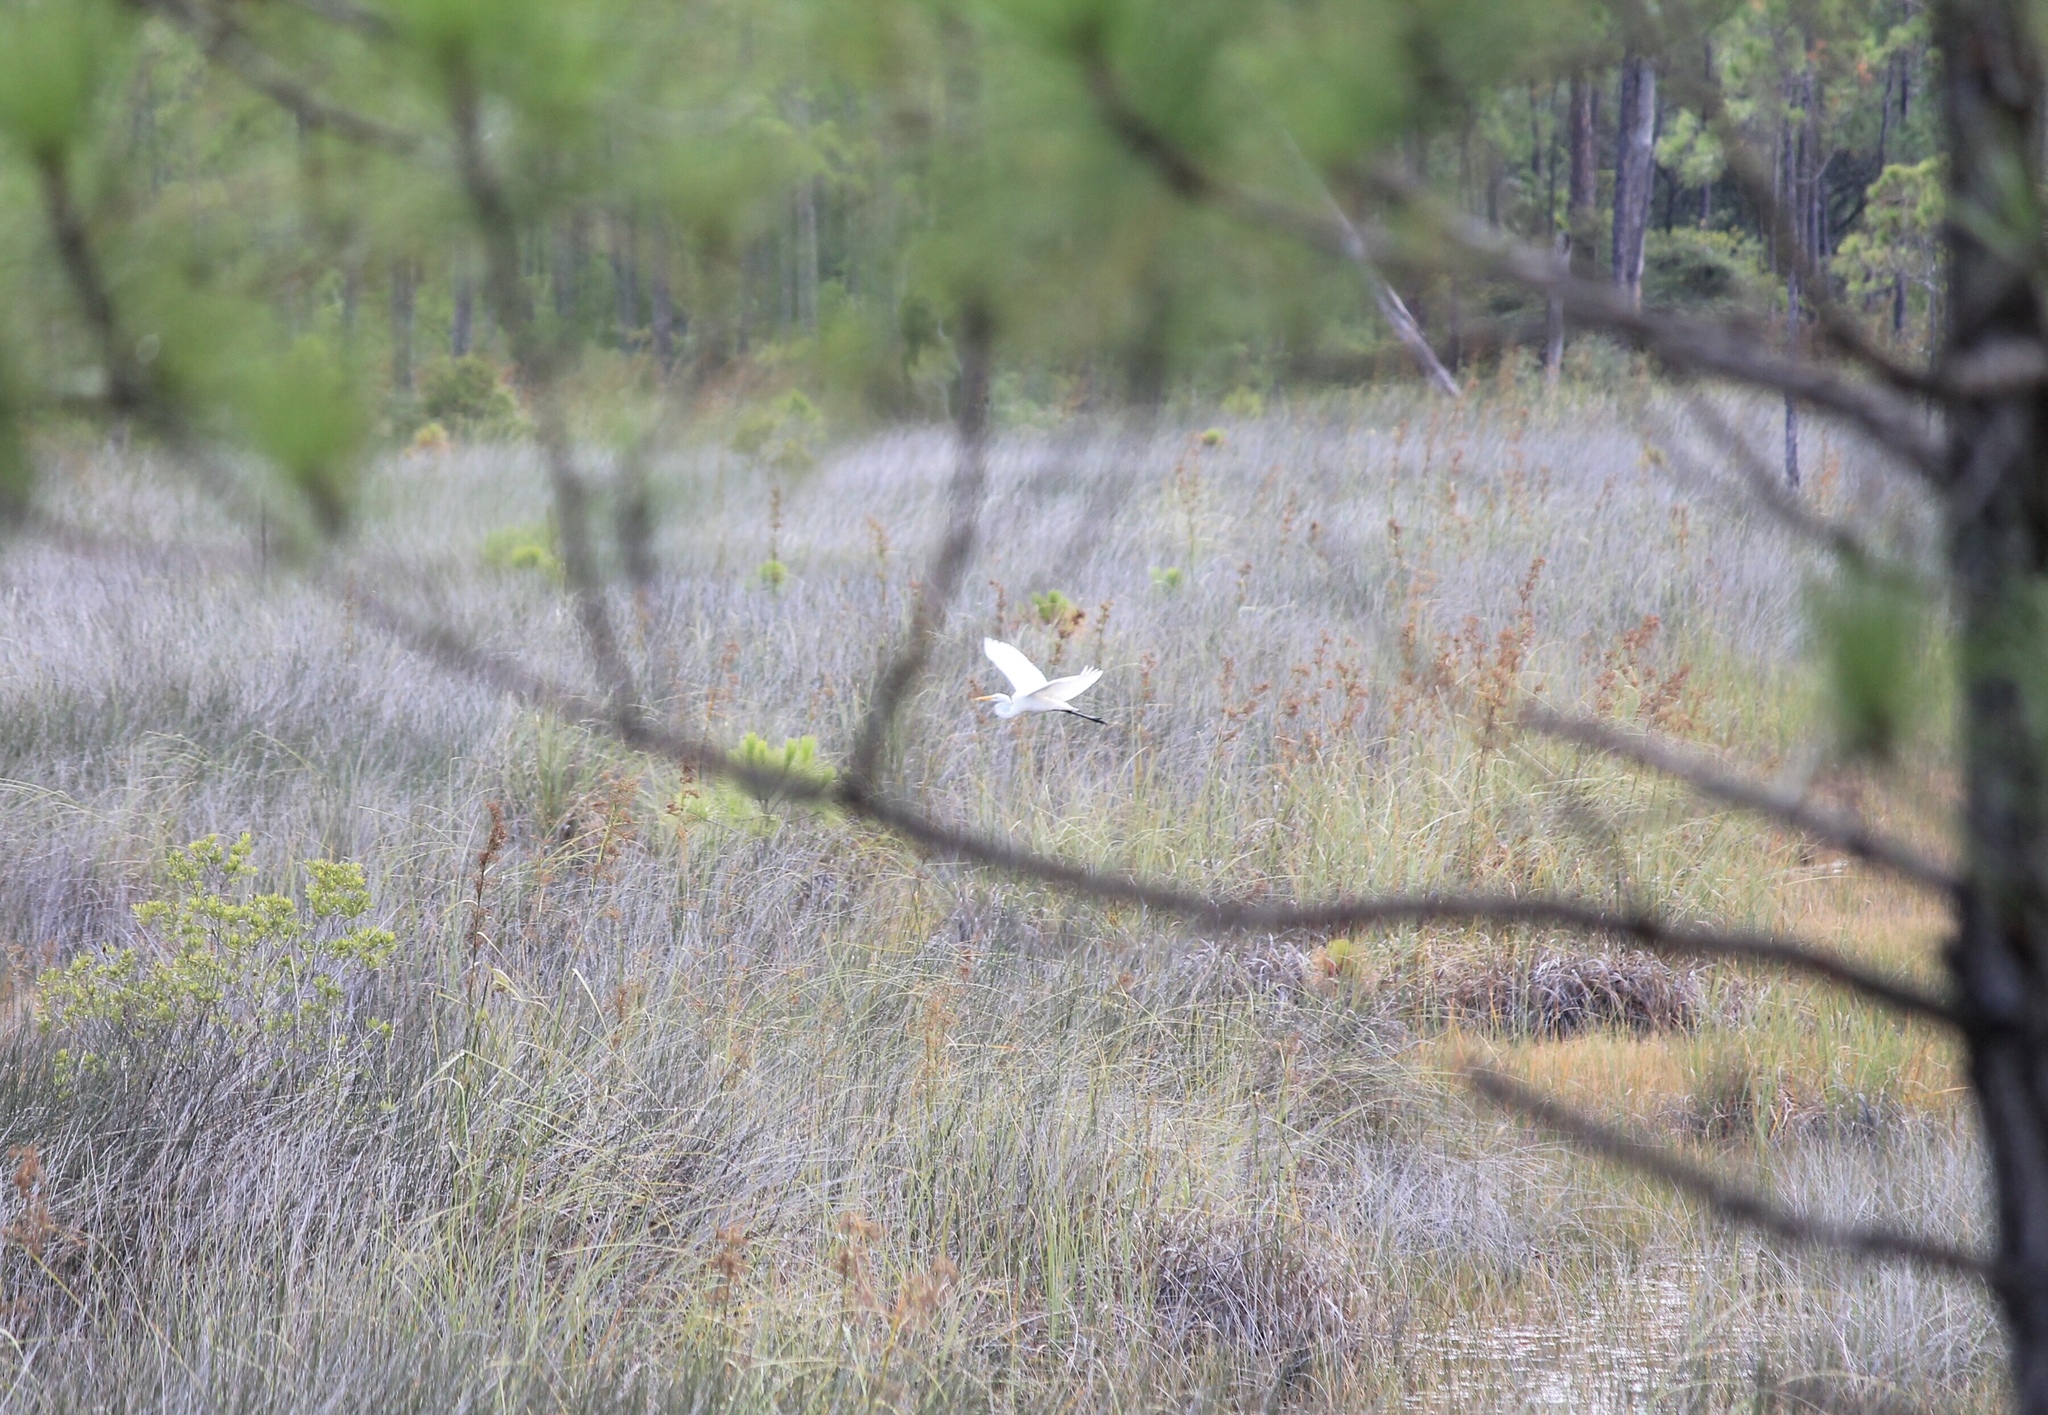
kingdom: Animalia
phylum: Chordata
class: Aves
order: Pelecaniformes
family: Ardeidae
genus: Ardea
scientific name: Ardea alba
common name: Great egret
